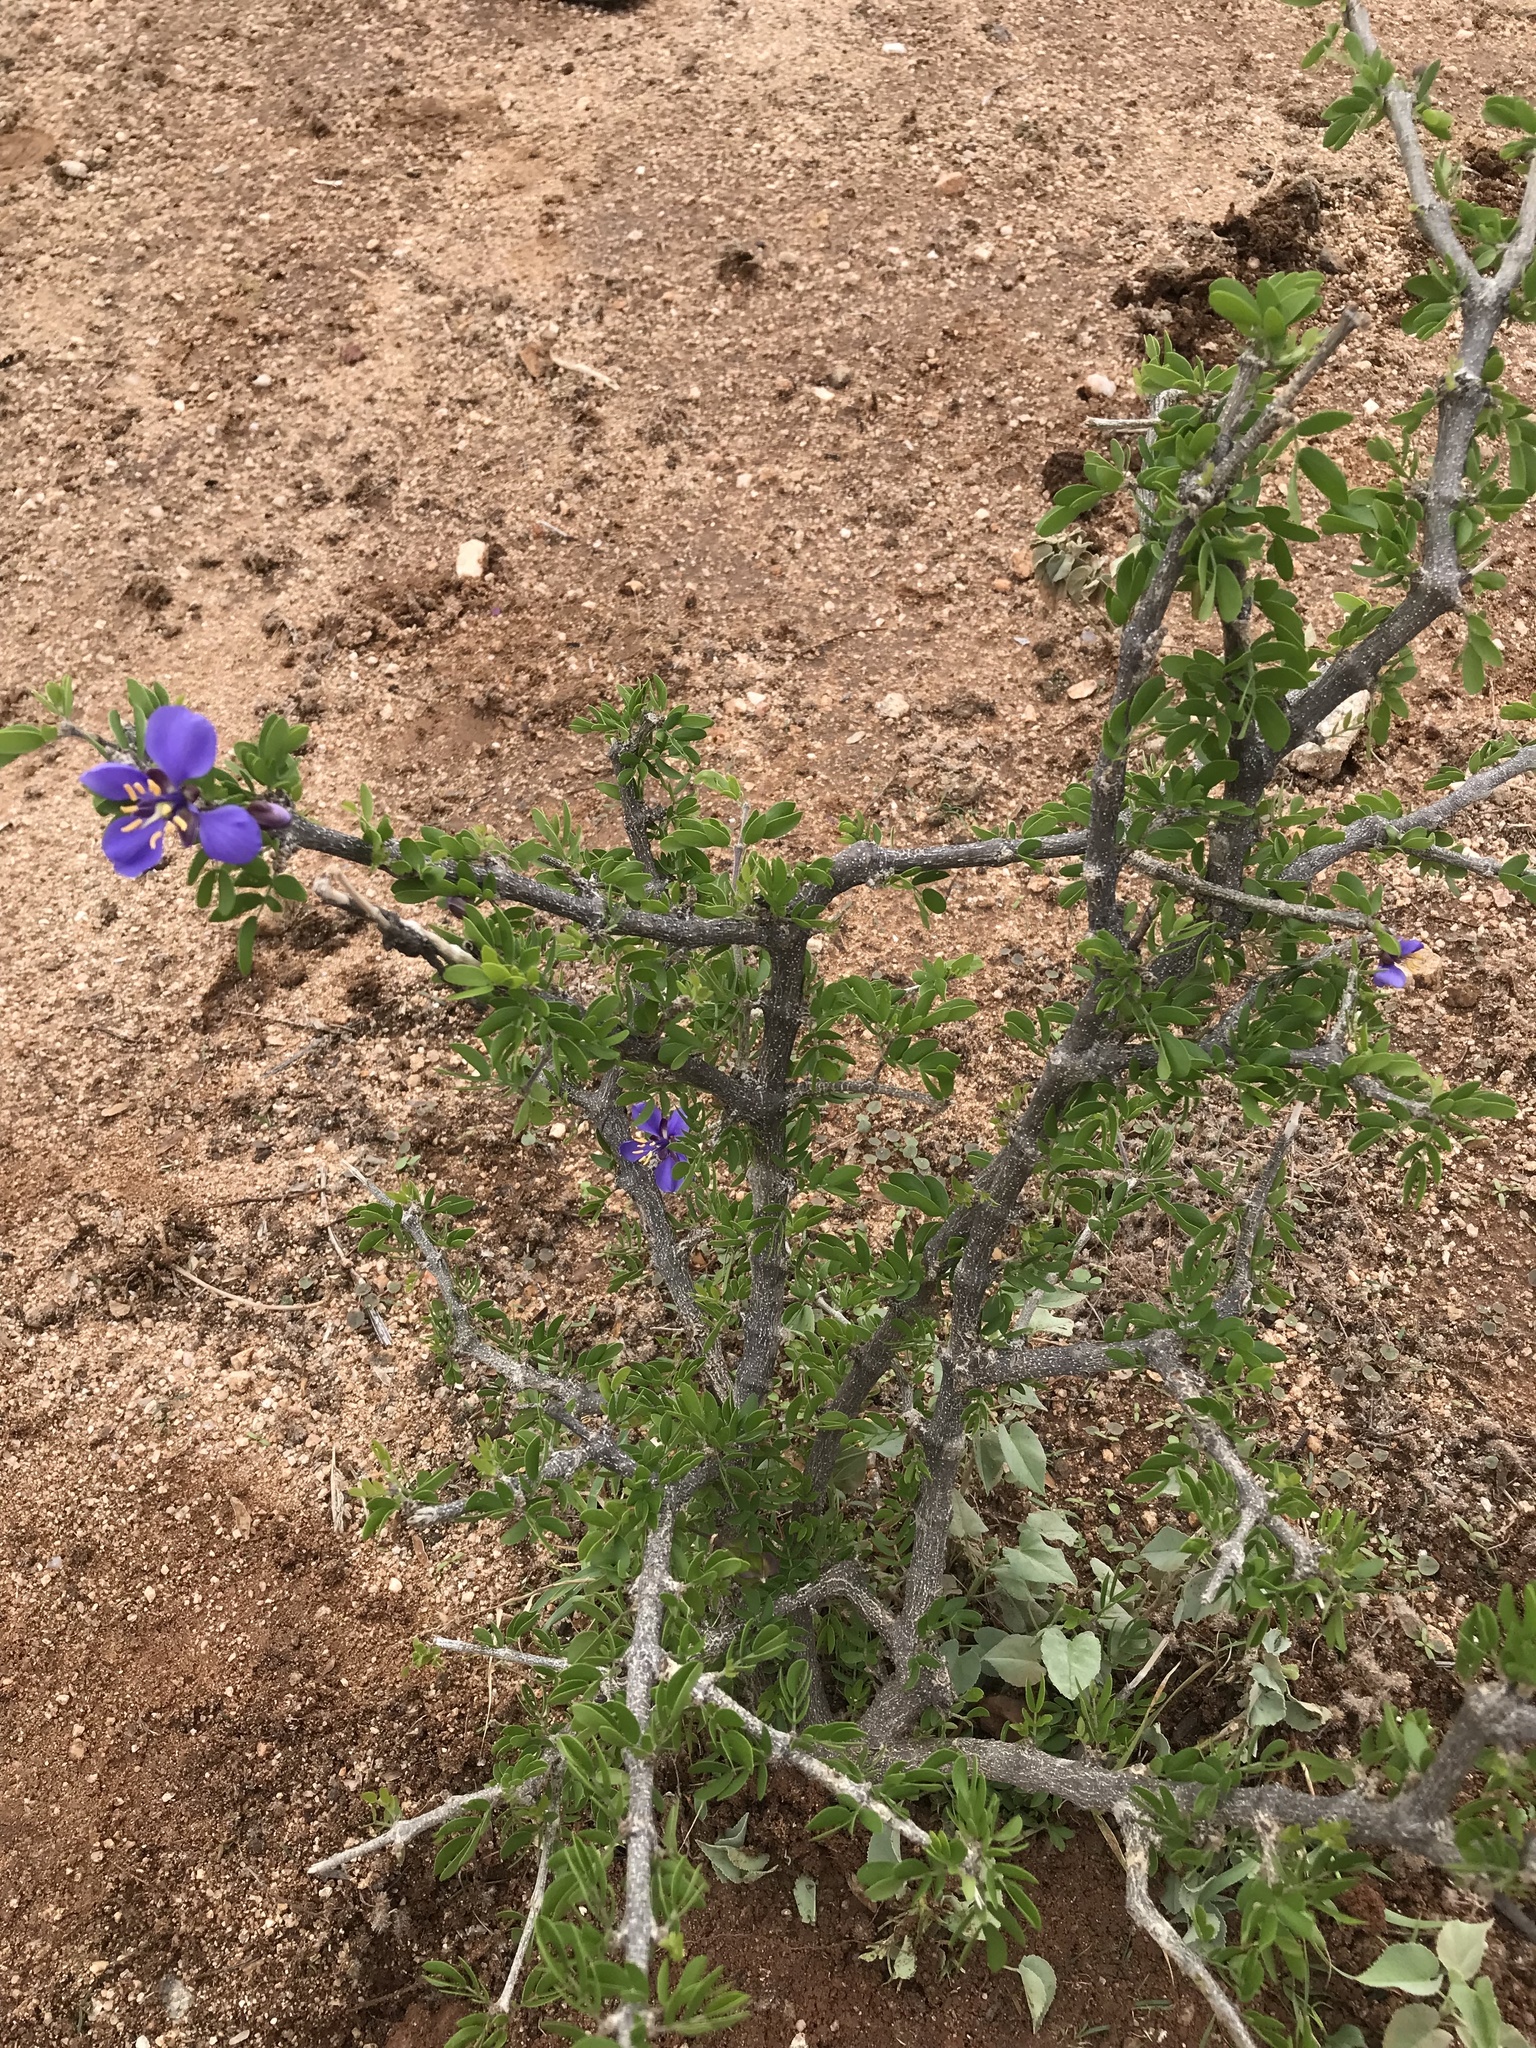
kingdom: Plantae
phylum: Tracheophyta
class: Magnoliopsida
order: Zygophyllales
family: Zygophyllaceae
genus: Guaiacum
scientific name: Guaiacum coulteri
